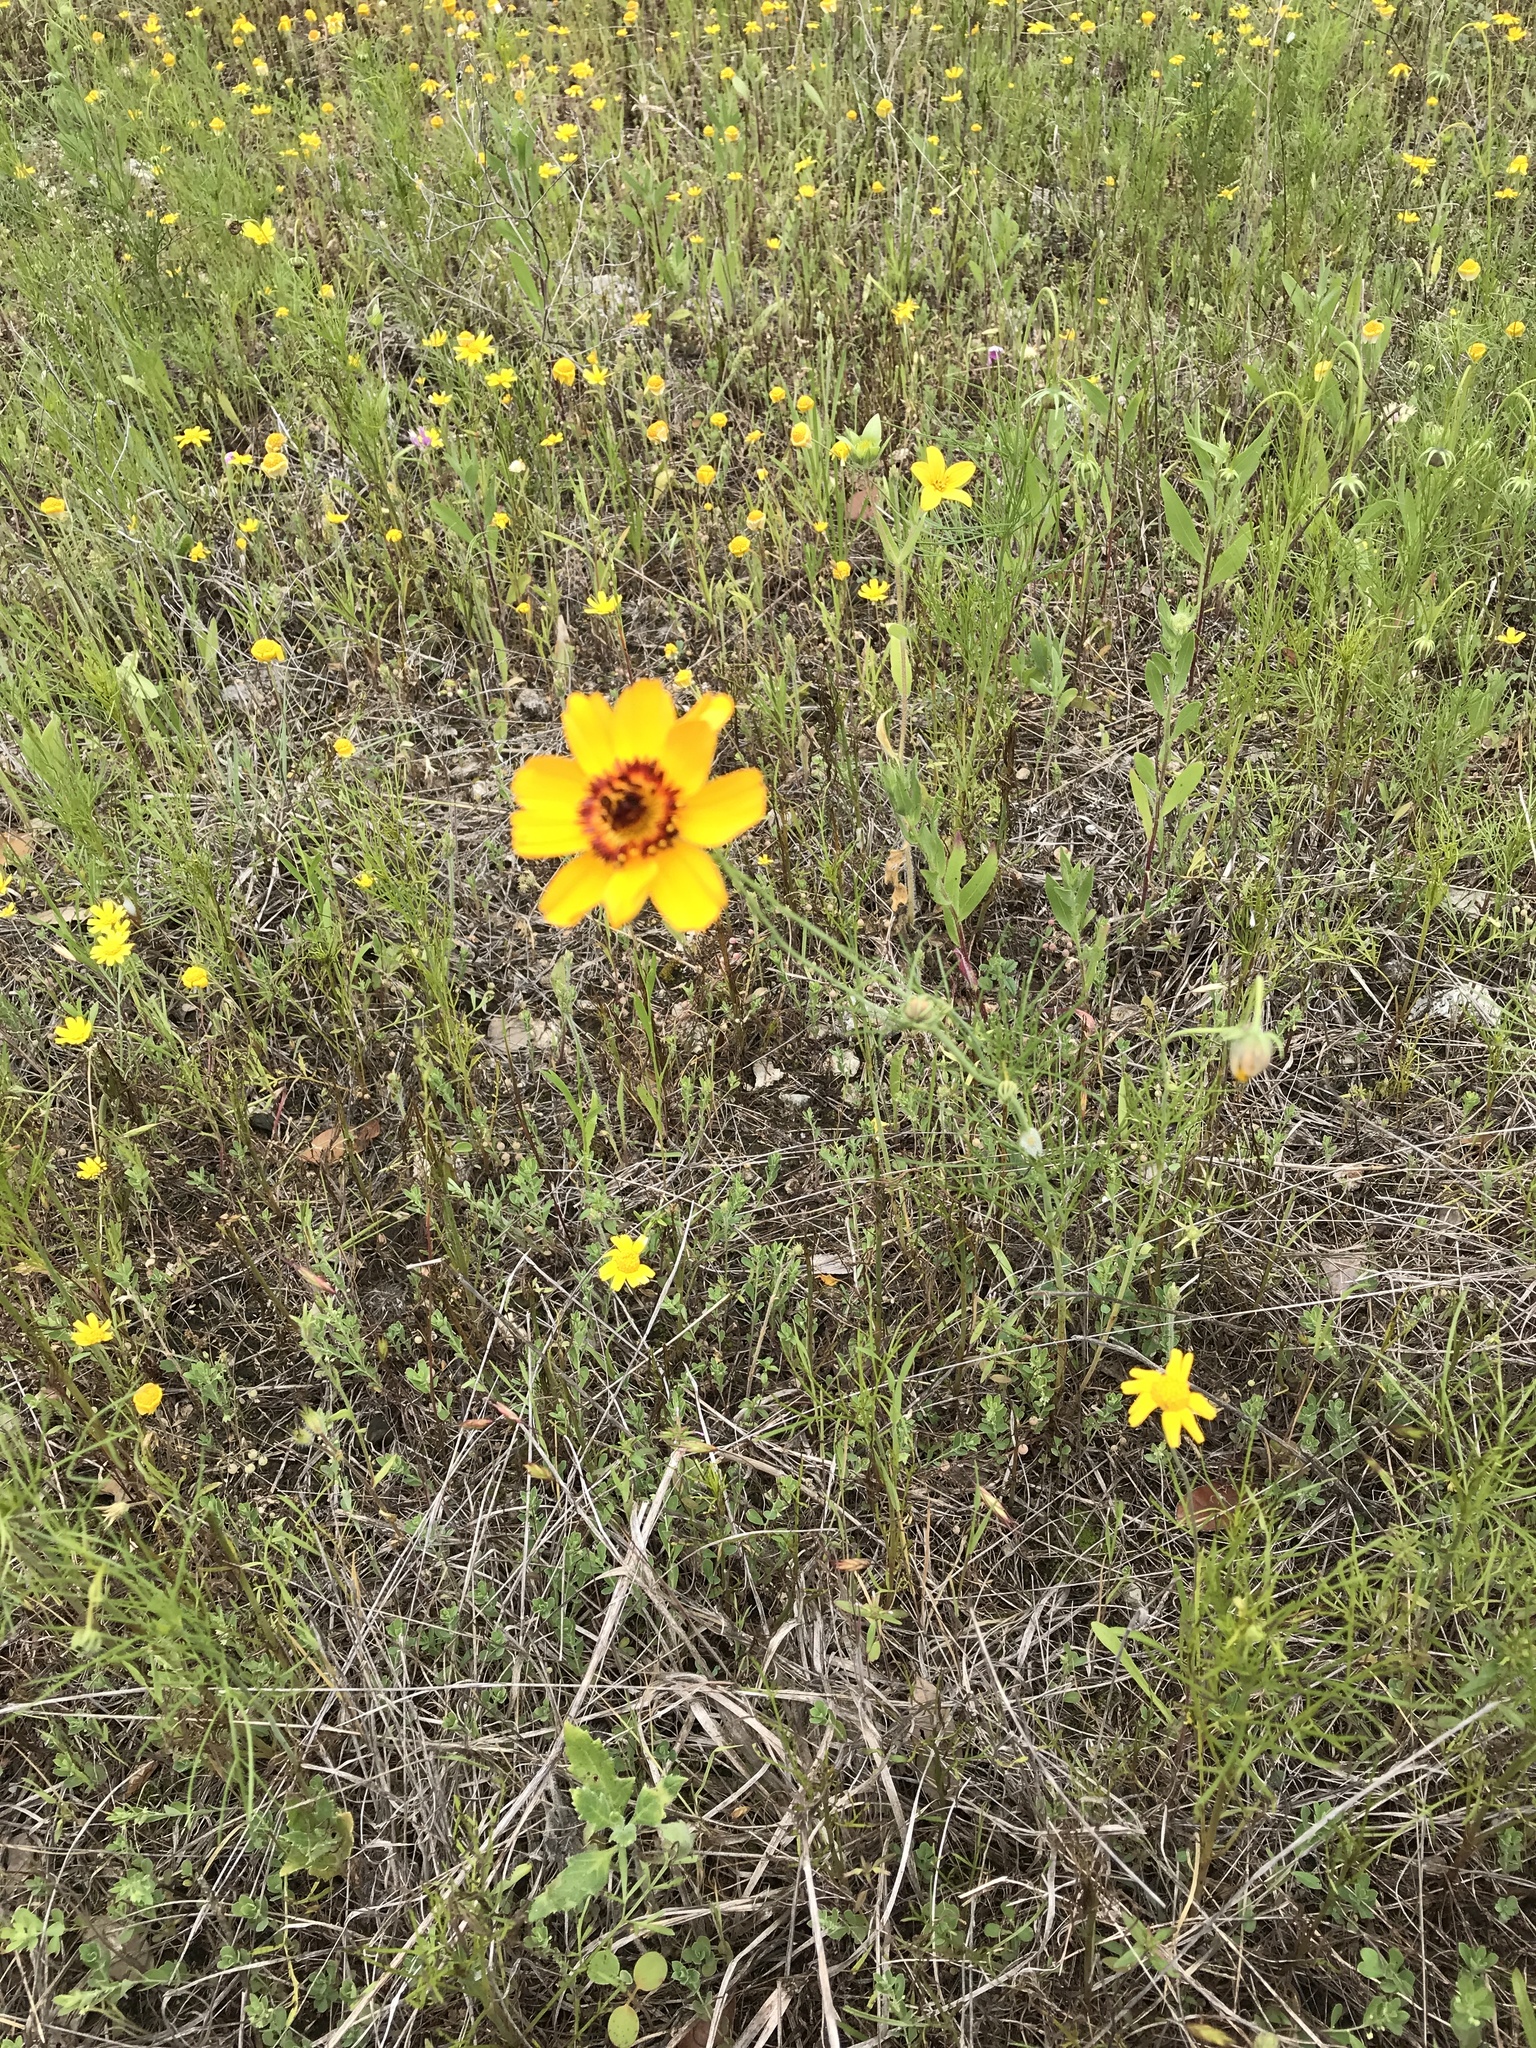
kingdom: Plantae
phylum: Tracheophyta
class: Magnoliopsida
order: Asterales
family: Asteraceae
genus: Thelesperma
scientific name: Thelesperma filifolium
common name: Stiff greenthread
